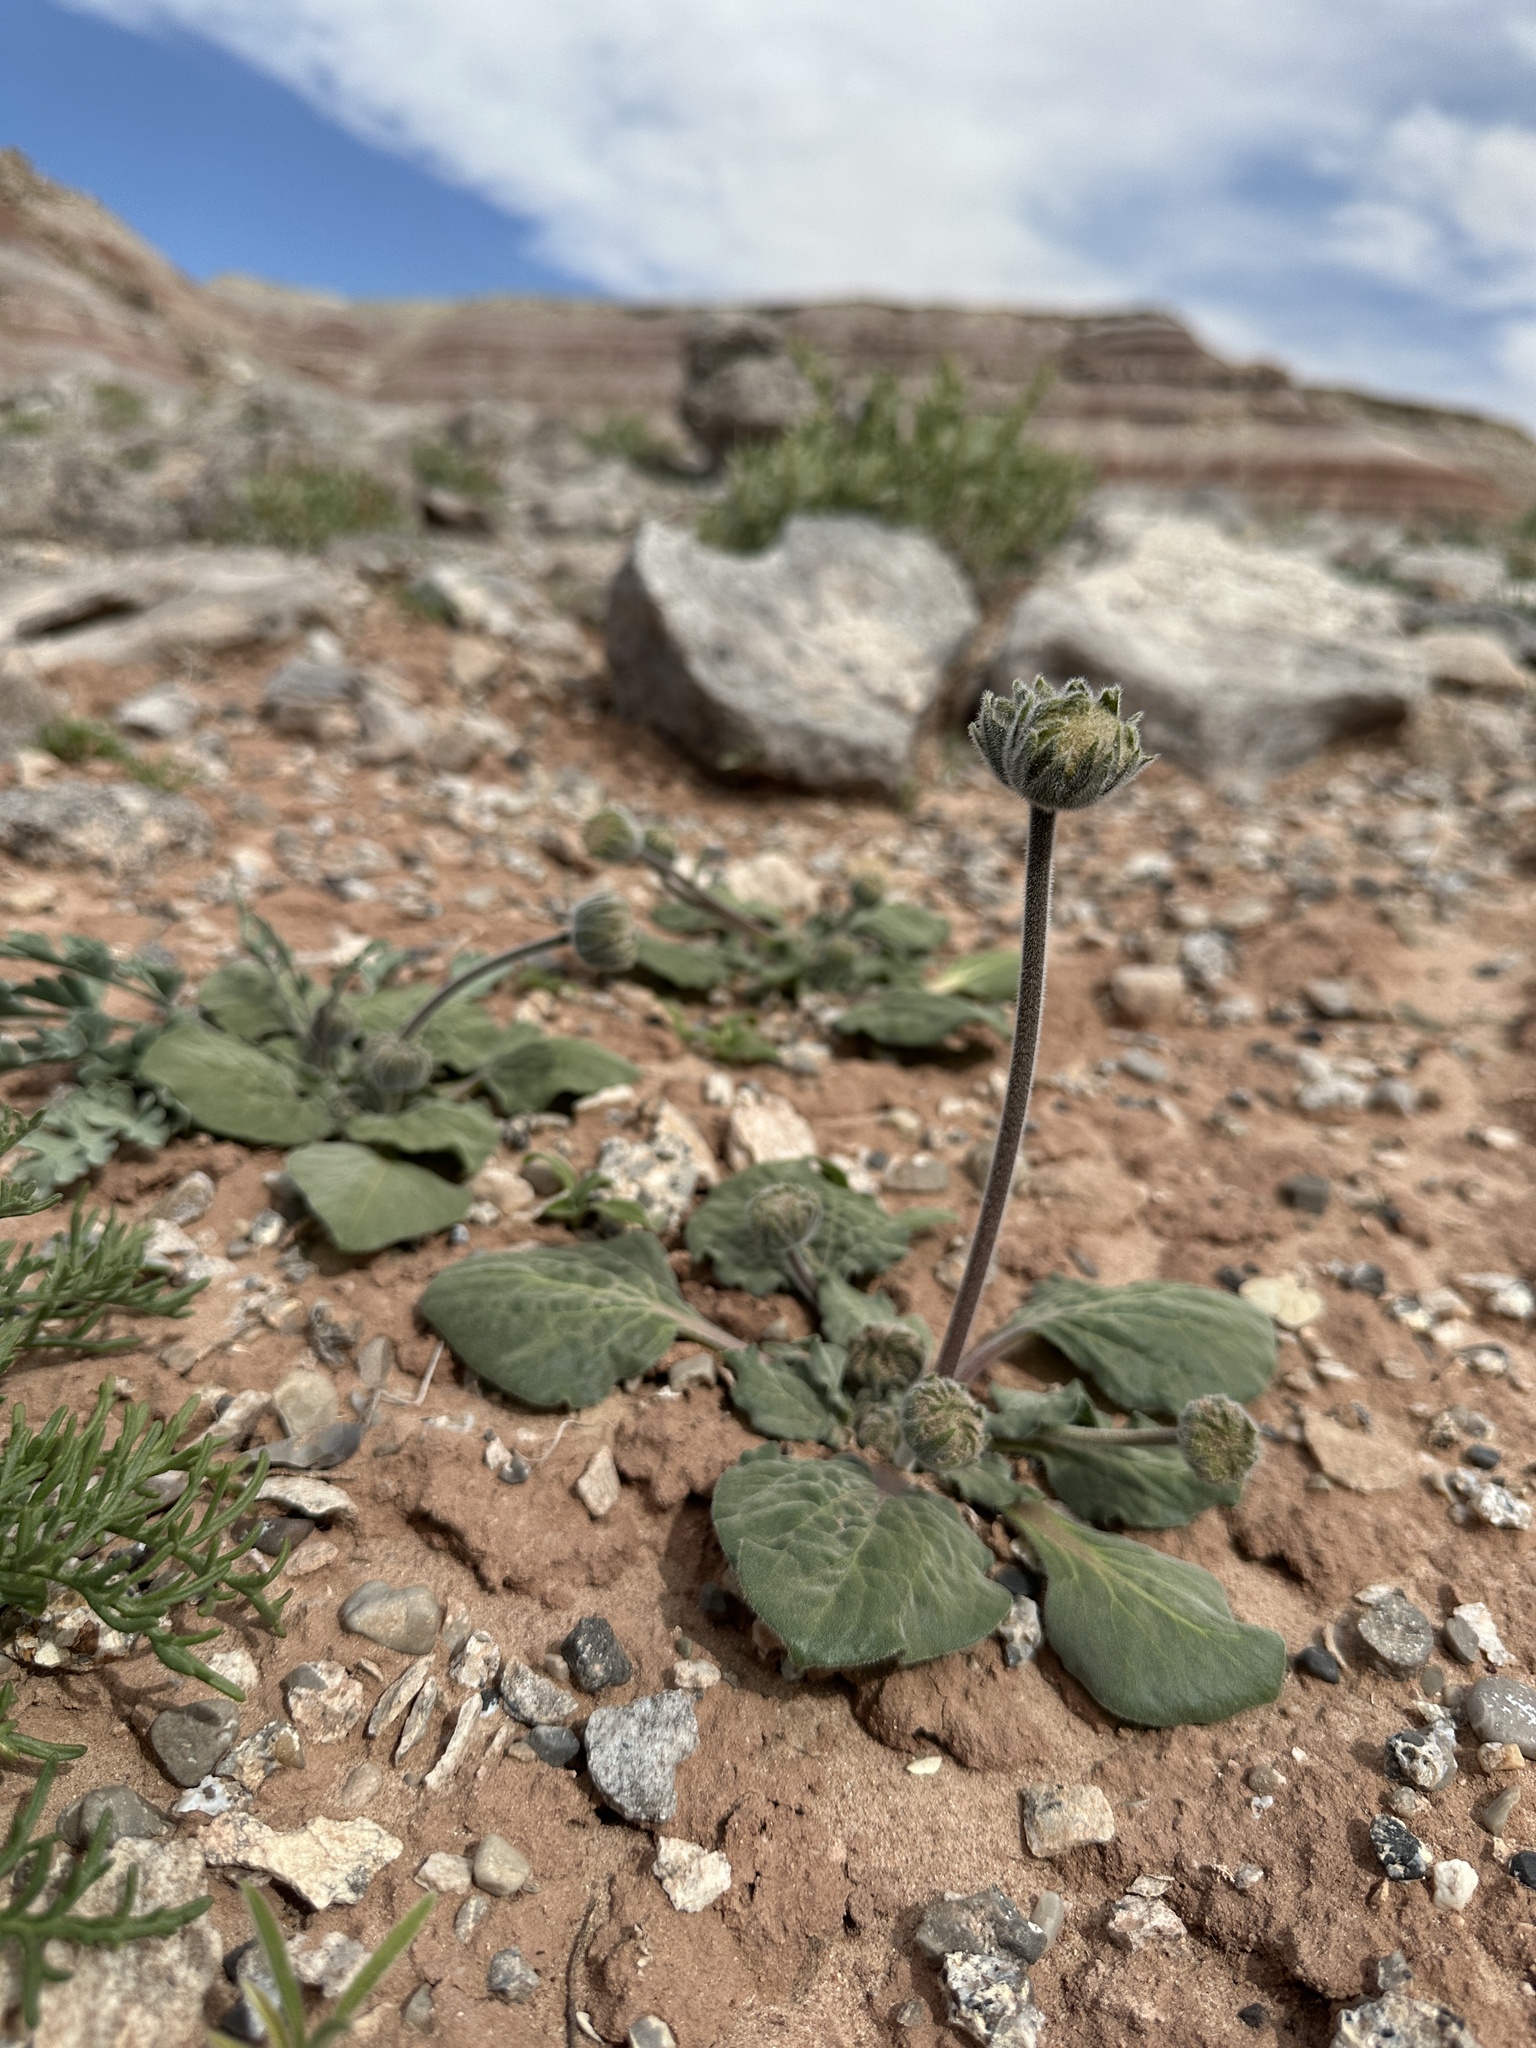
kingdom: Plantae
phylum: Tracheophyta
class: Magnoliopsida
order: Asterales
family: Asteraceae
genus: Encelia
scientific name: Encelia nutans
